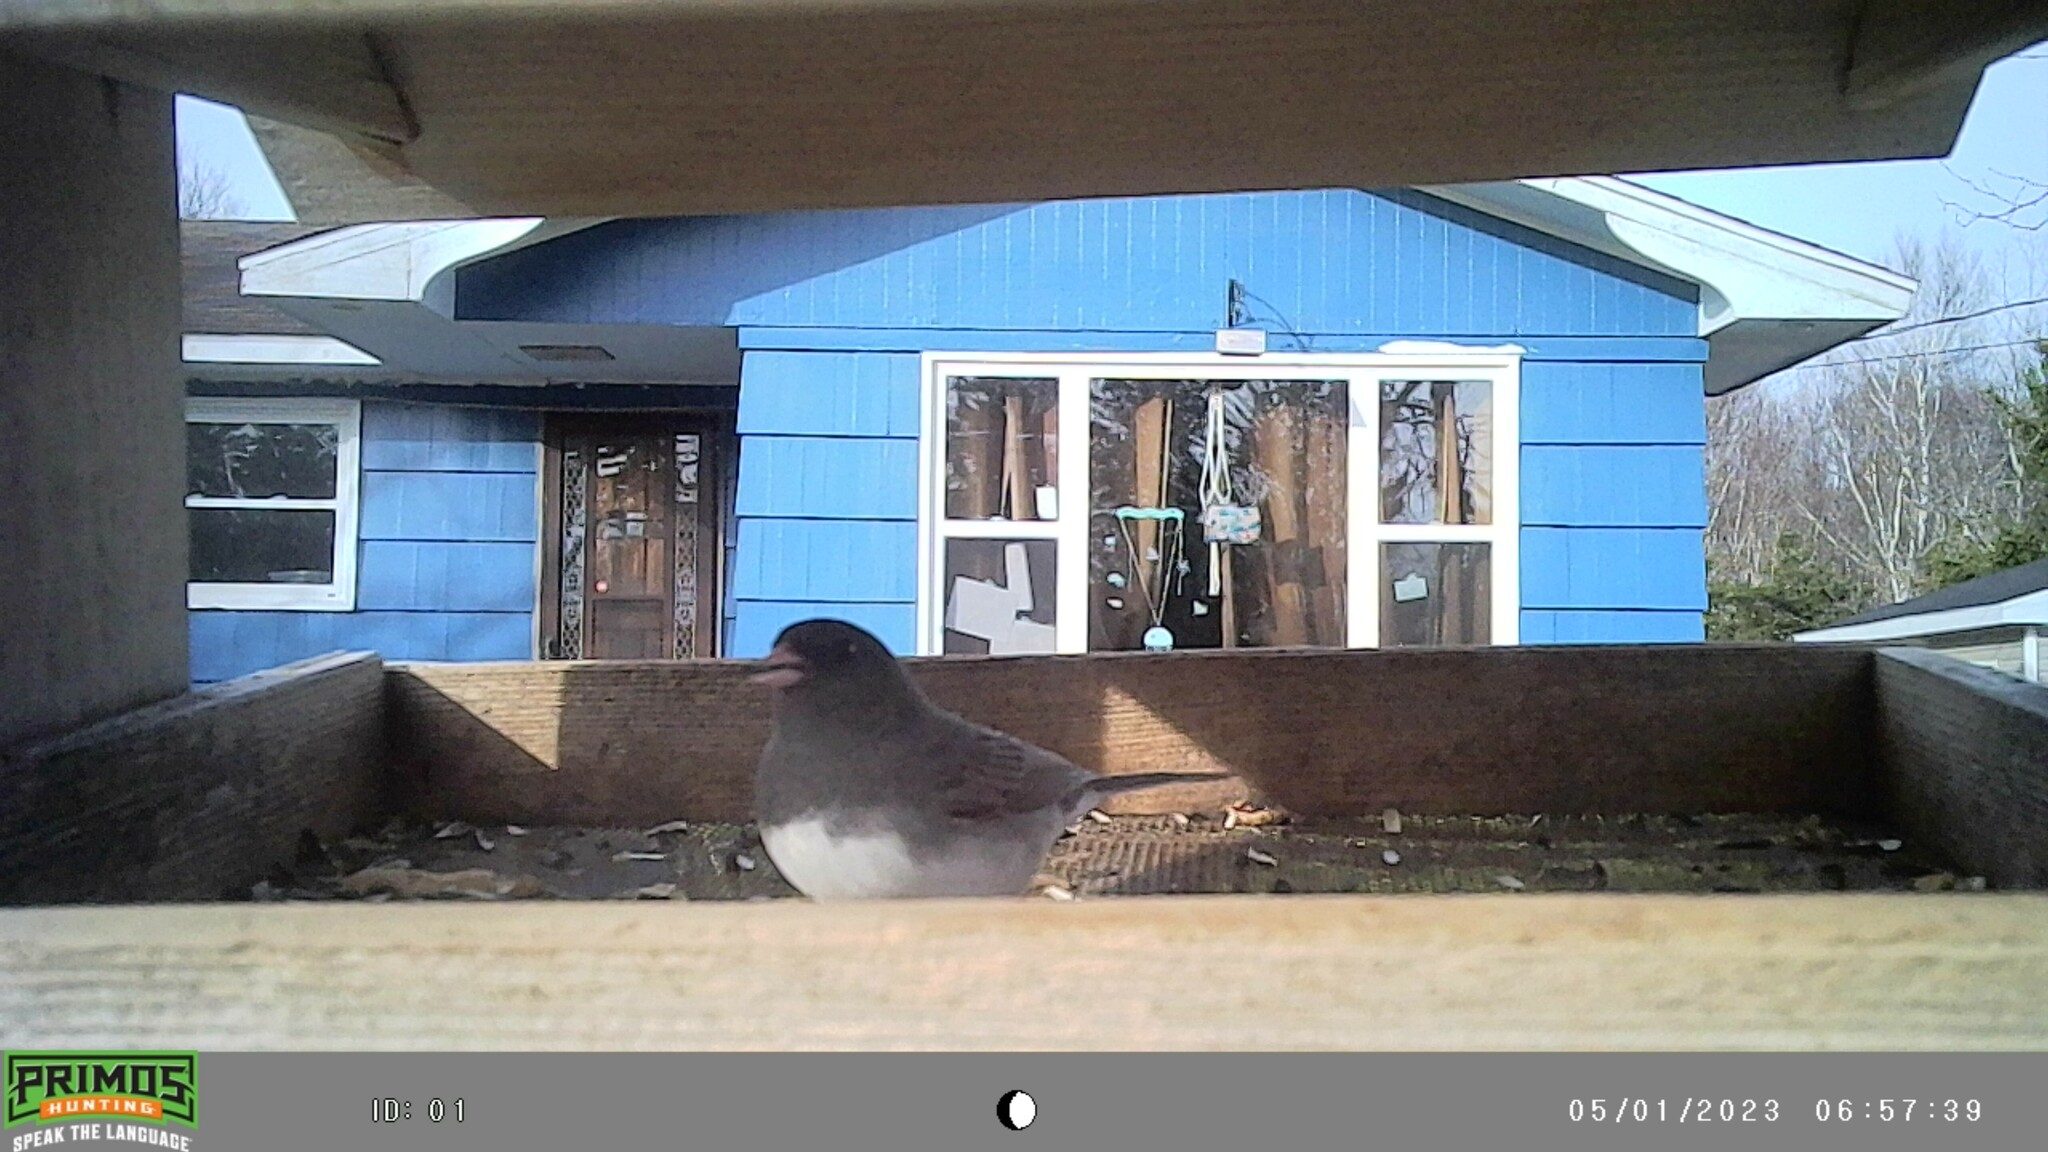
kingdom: Animalia
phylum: Chordata
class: Aves
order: Passeriformes
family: Passerellidae
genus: Junco
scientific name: Junco hyemalis
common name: Dark-eyed junco
